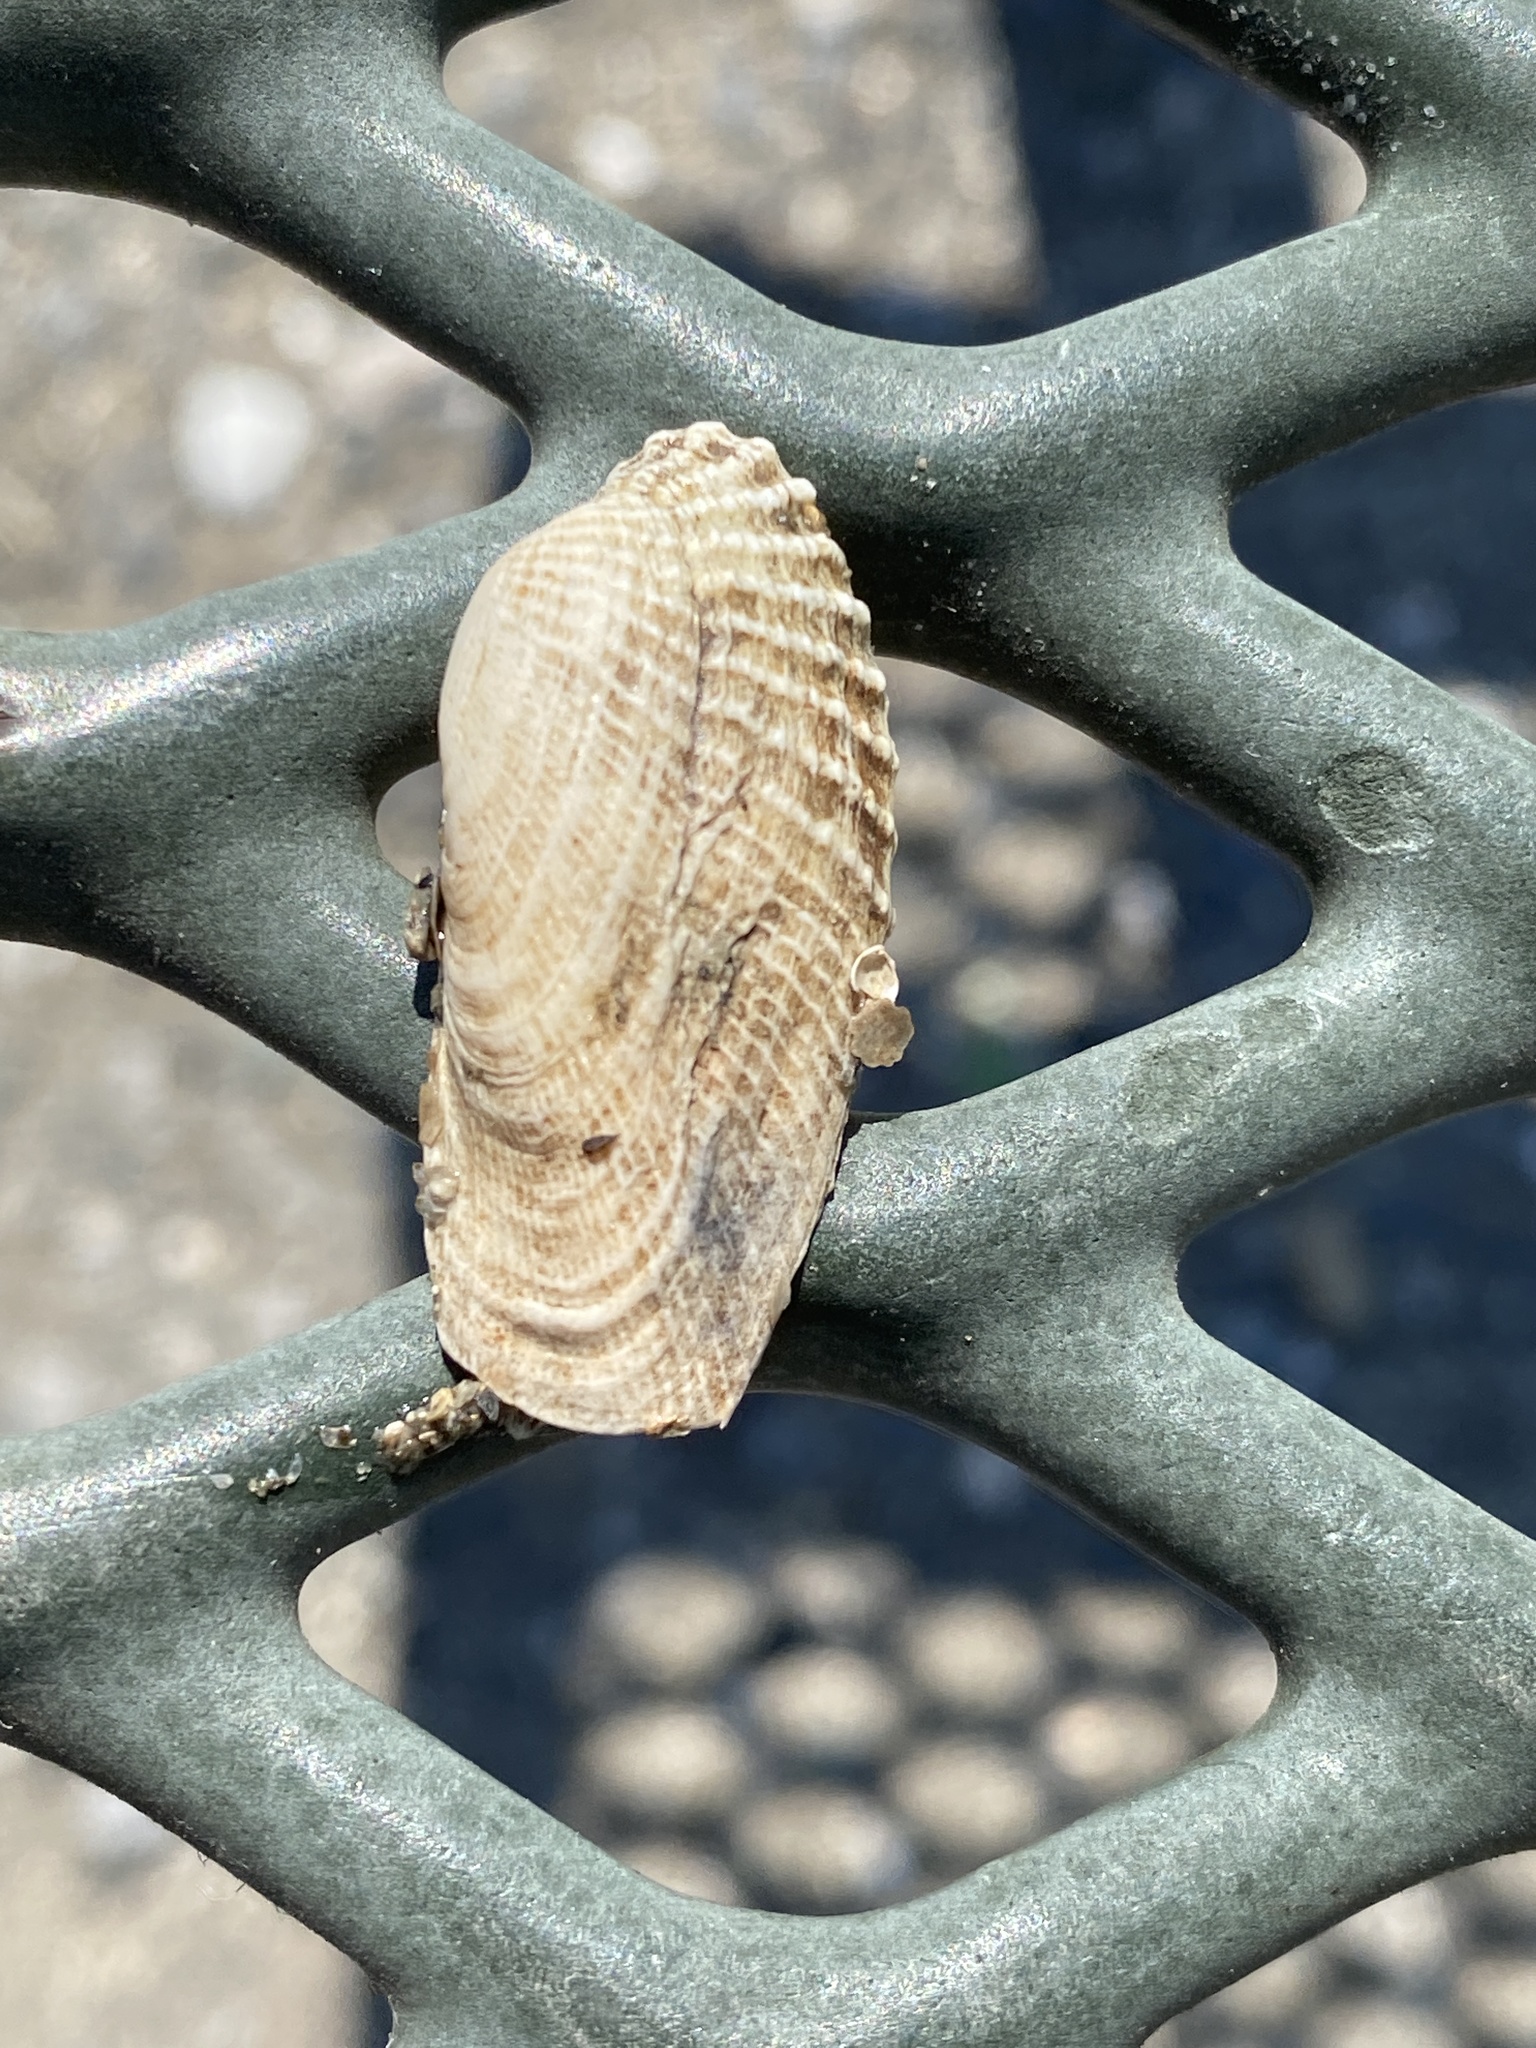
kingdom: Animalia
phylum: Mollusca
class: Bivalvia
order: Venerida
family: Veneridae
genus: Petricolaria
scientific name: Petricolaria pholadiformis
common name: American piddock
